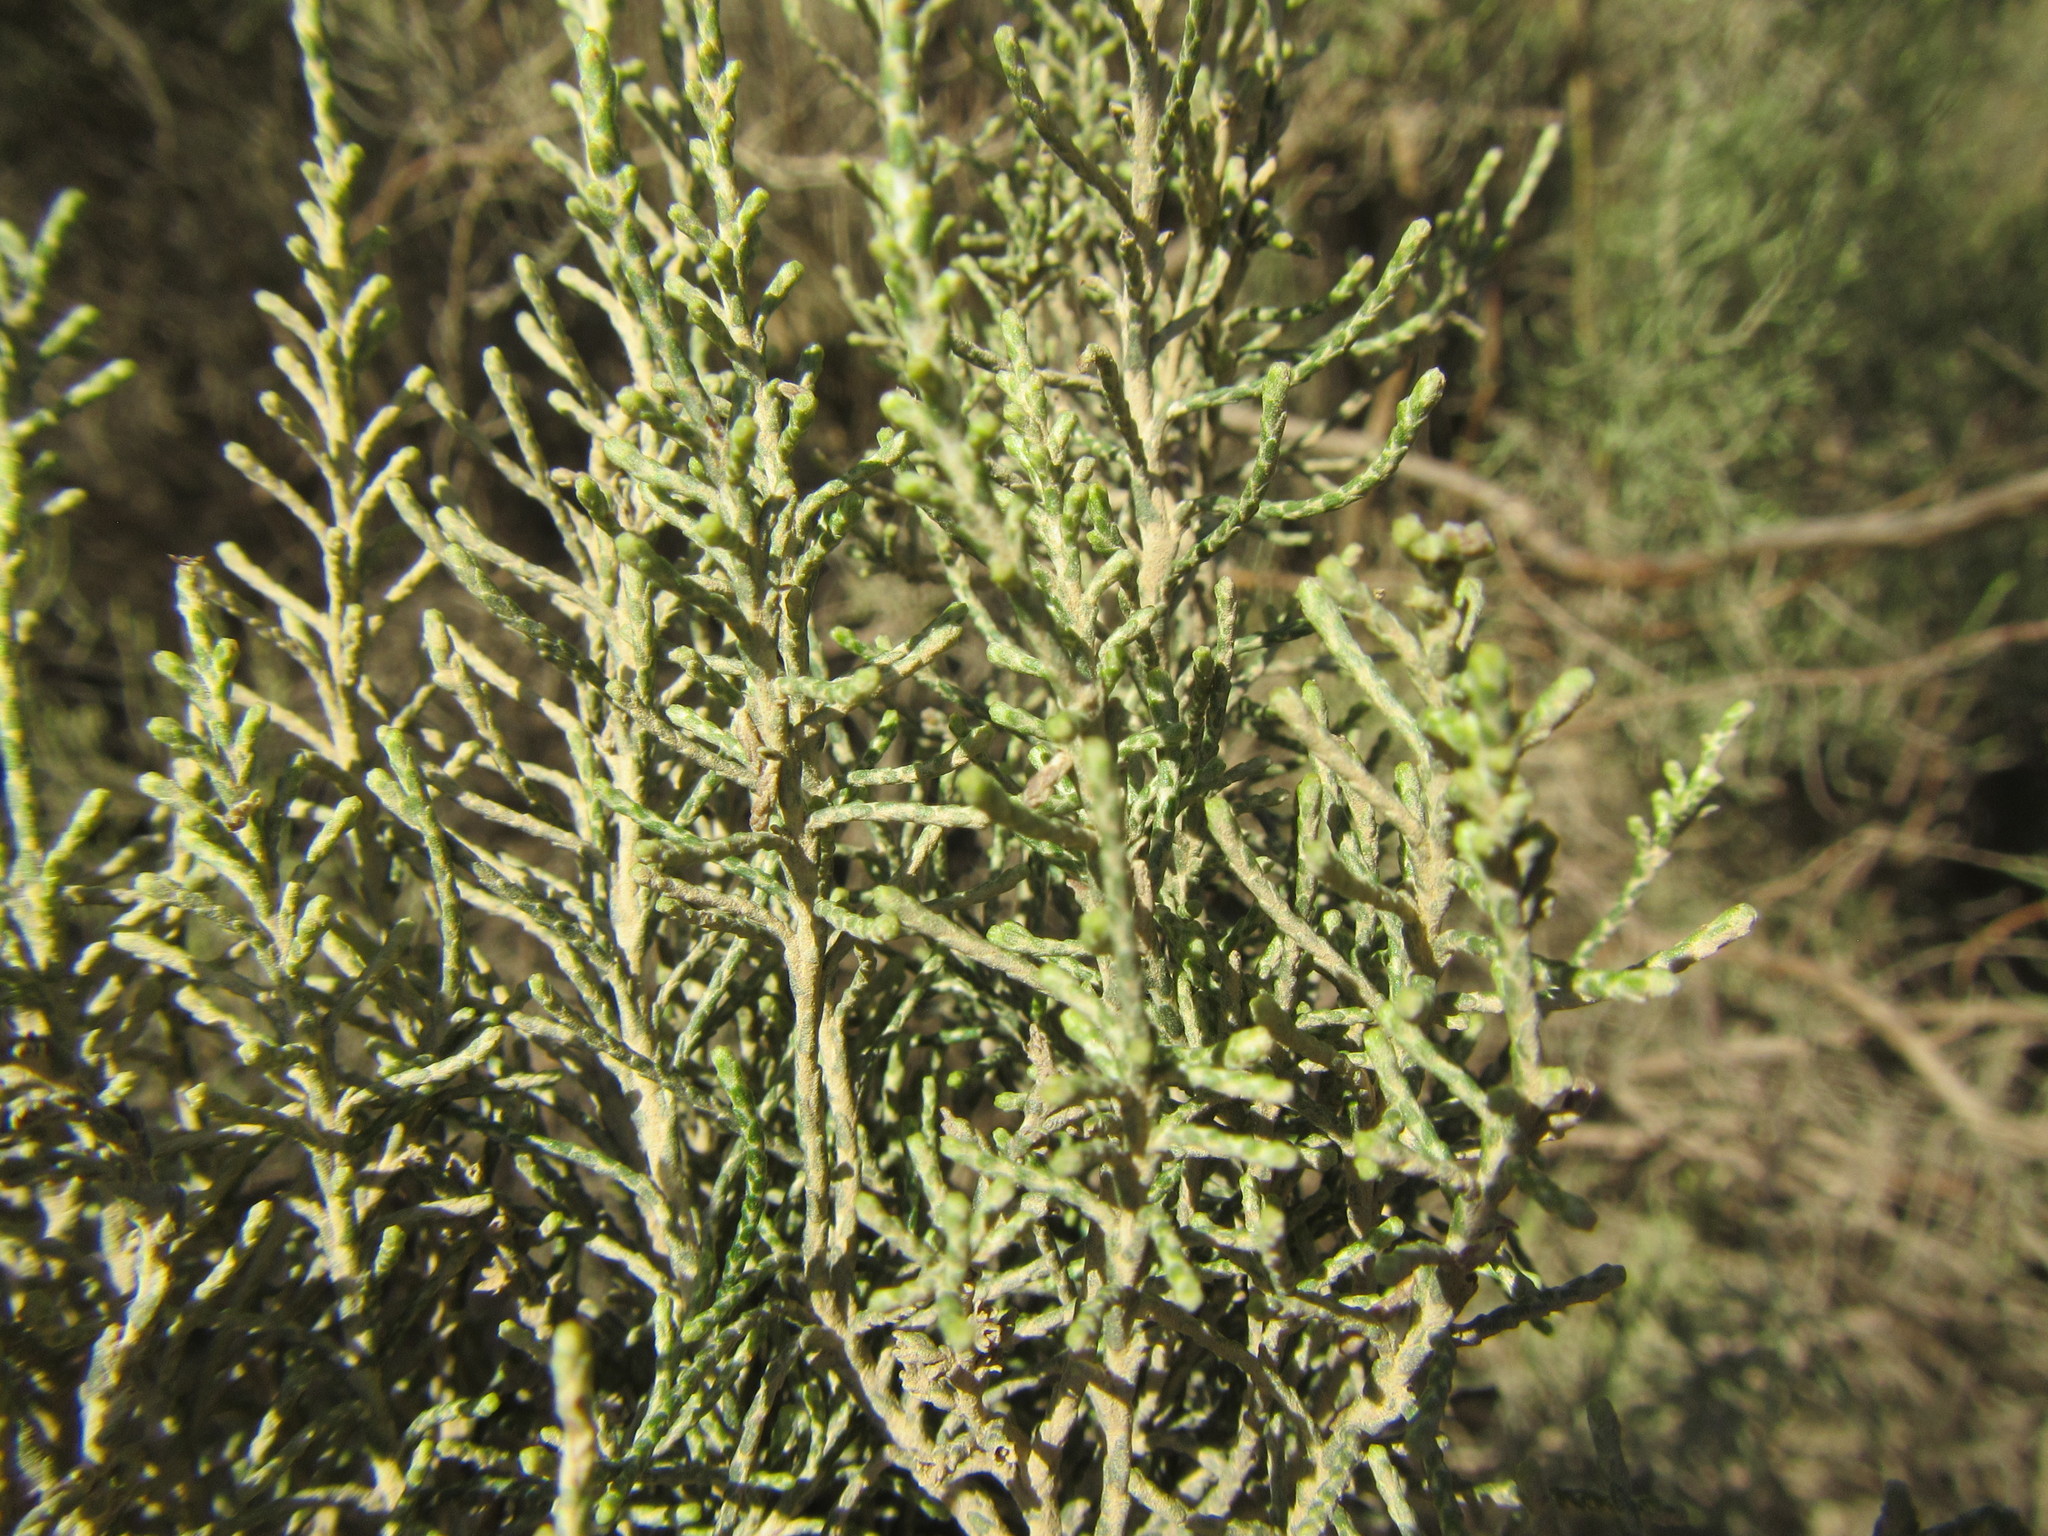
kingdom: Plantae
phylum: Tracheophyta
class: Magnoliopsida
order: Asterales
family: Asteraceae
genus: Dicerothamnus
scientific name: Dicerothamnus rhinocerotis
